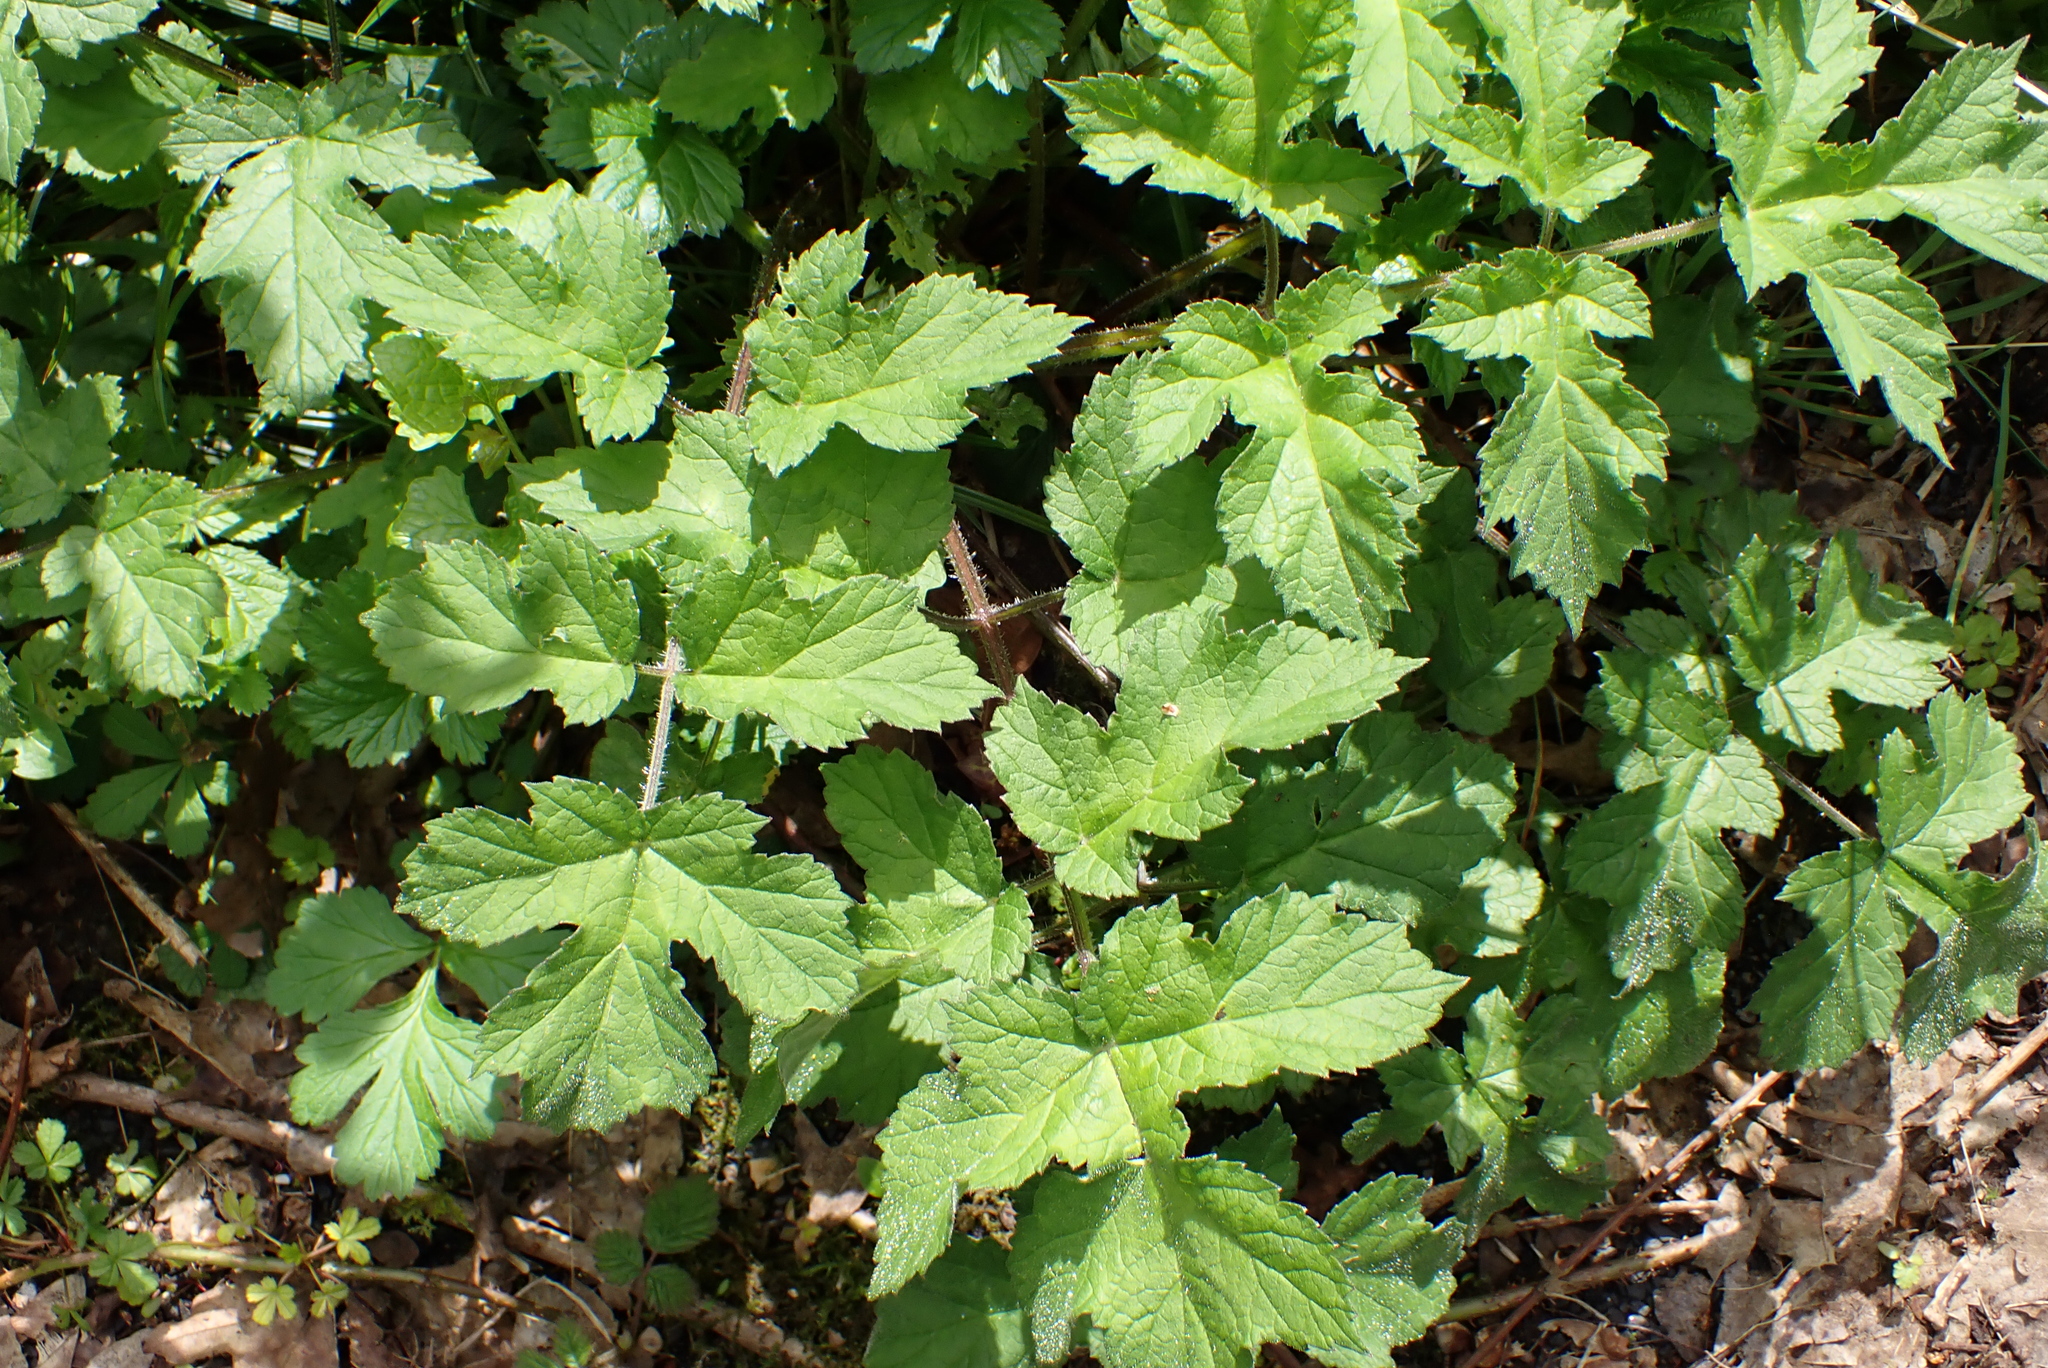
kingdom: Plantae
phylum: Tracheophyta
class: Magnoliopsida
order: Apiales
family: Apiaceae
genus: Heracleum
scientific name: Heracleum sphondylium
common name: Hogweed
